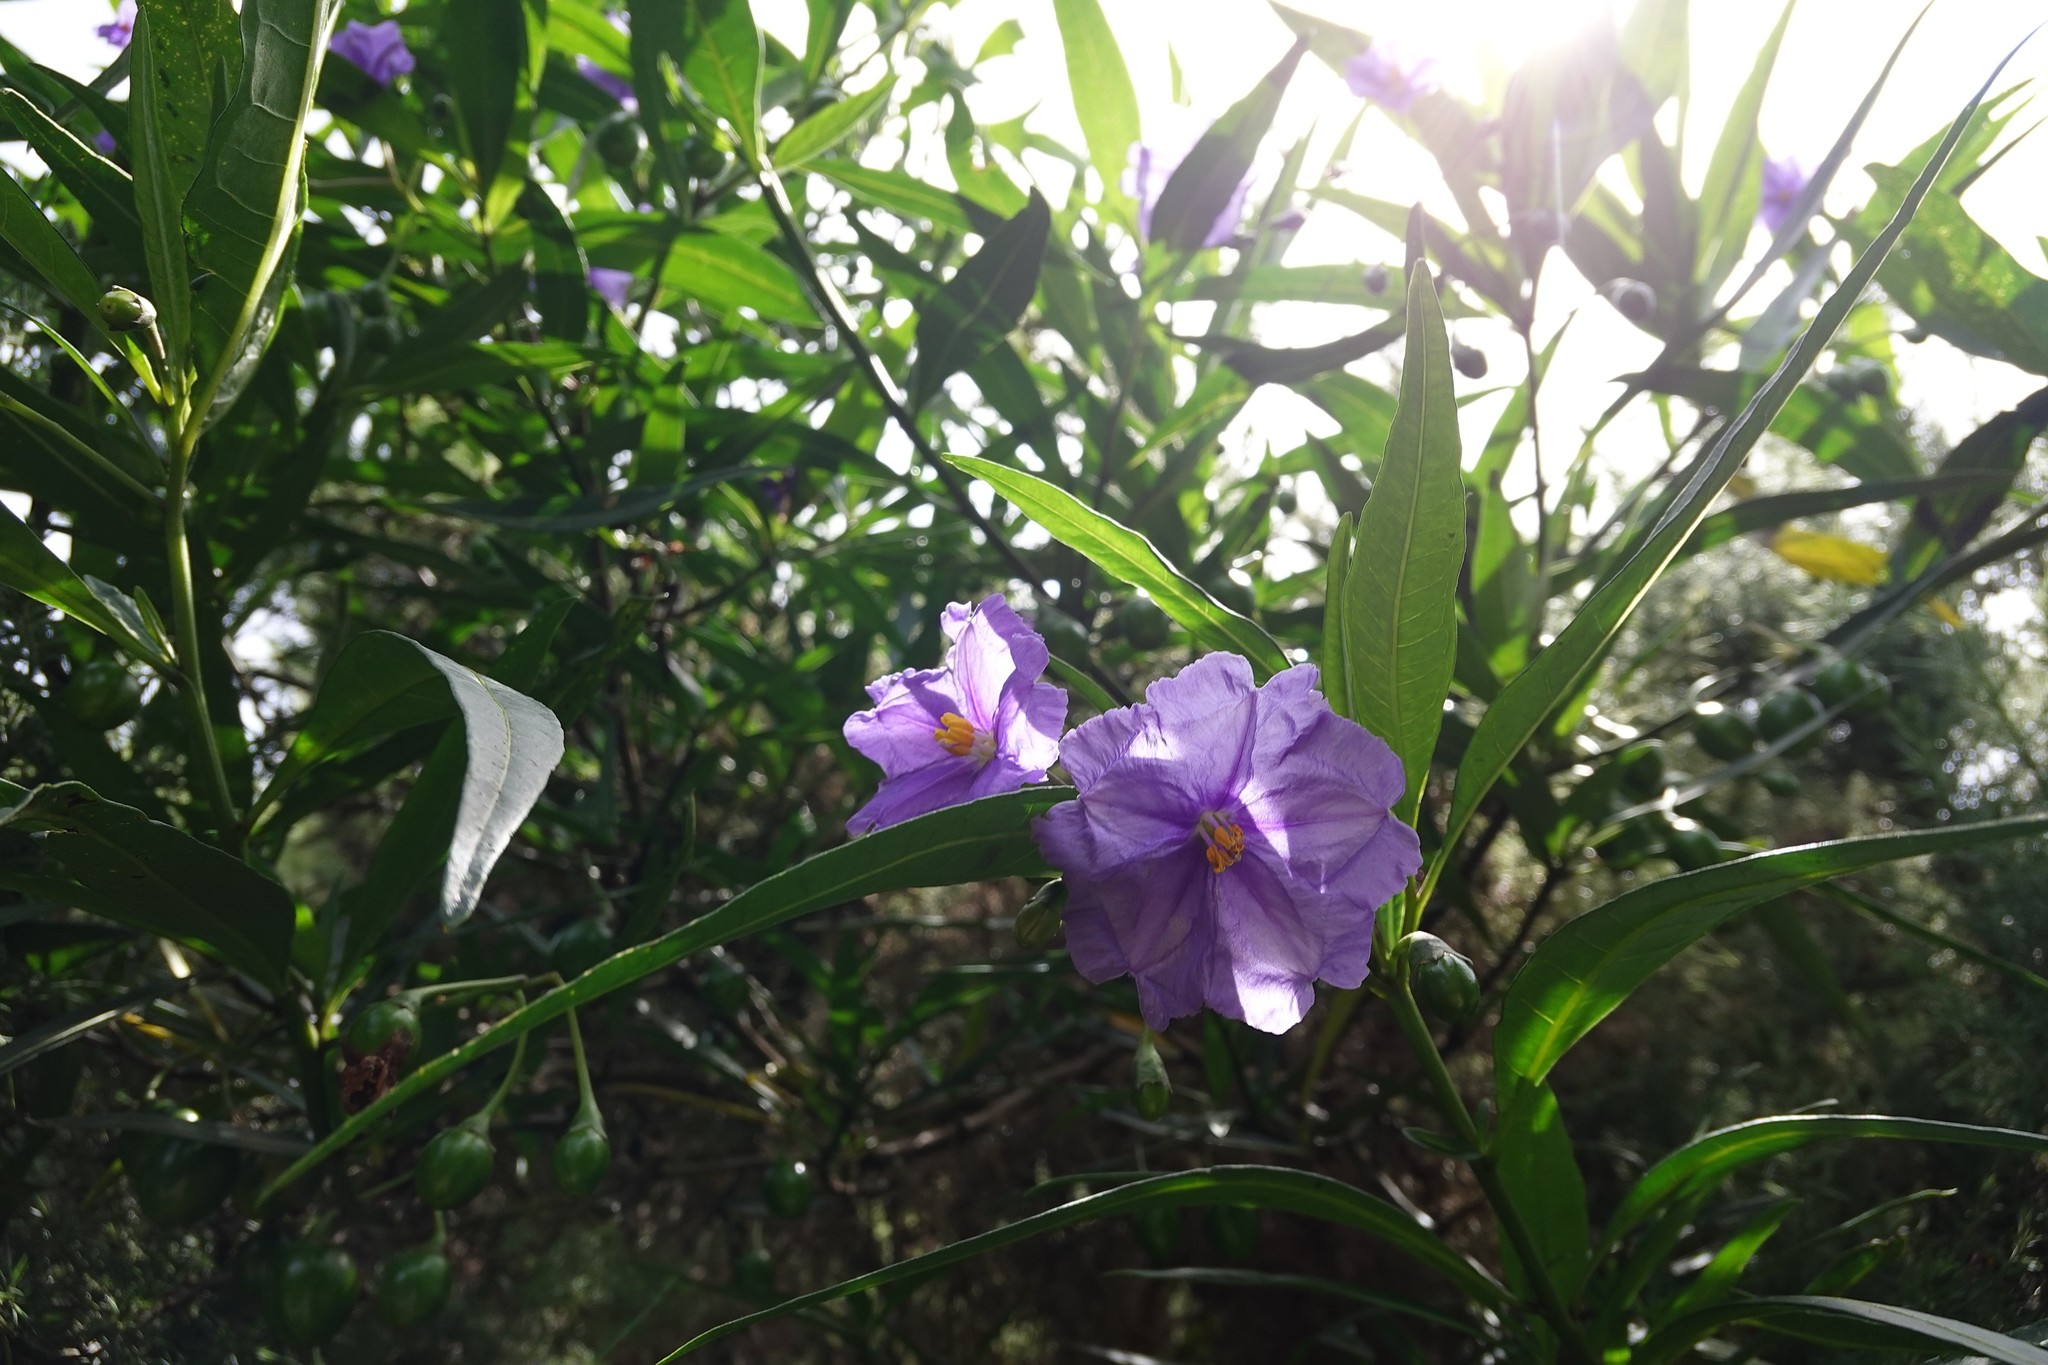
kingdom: Plantae
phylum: Tracheophyta
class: Magnoliopsida
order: Solanales
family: Solanaceae
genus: Solanum
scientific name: Solanum laciniatum
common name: Kangaroo-apple
